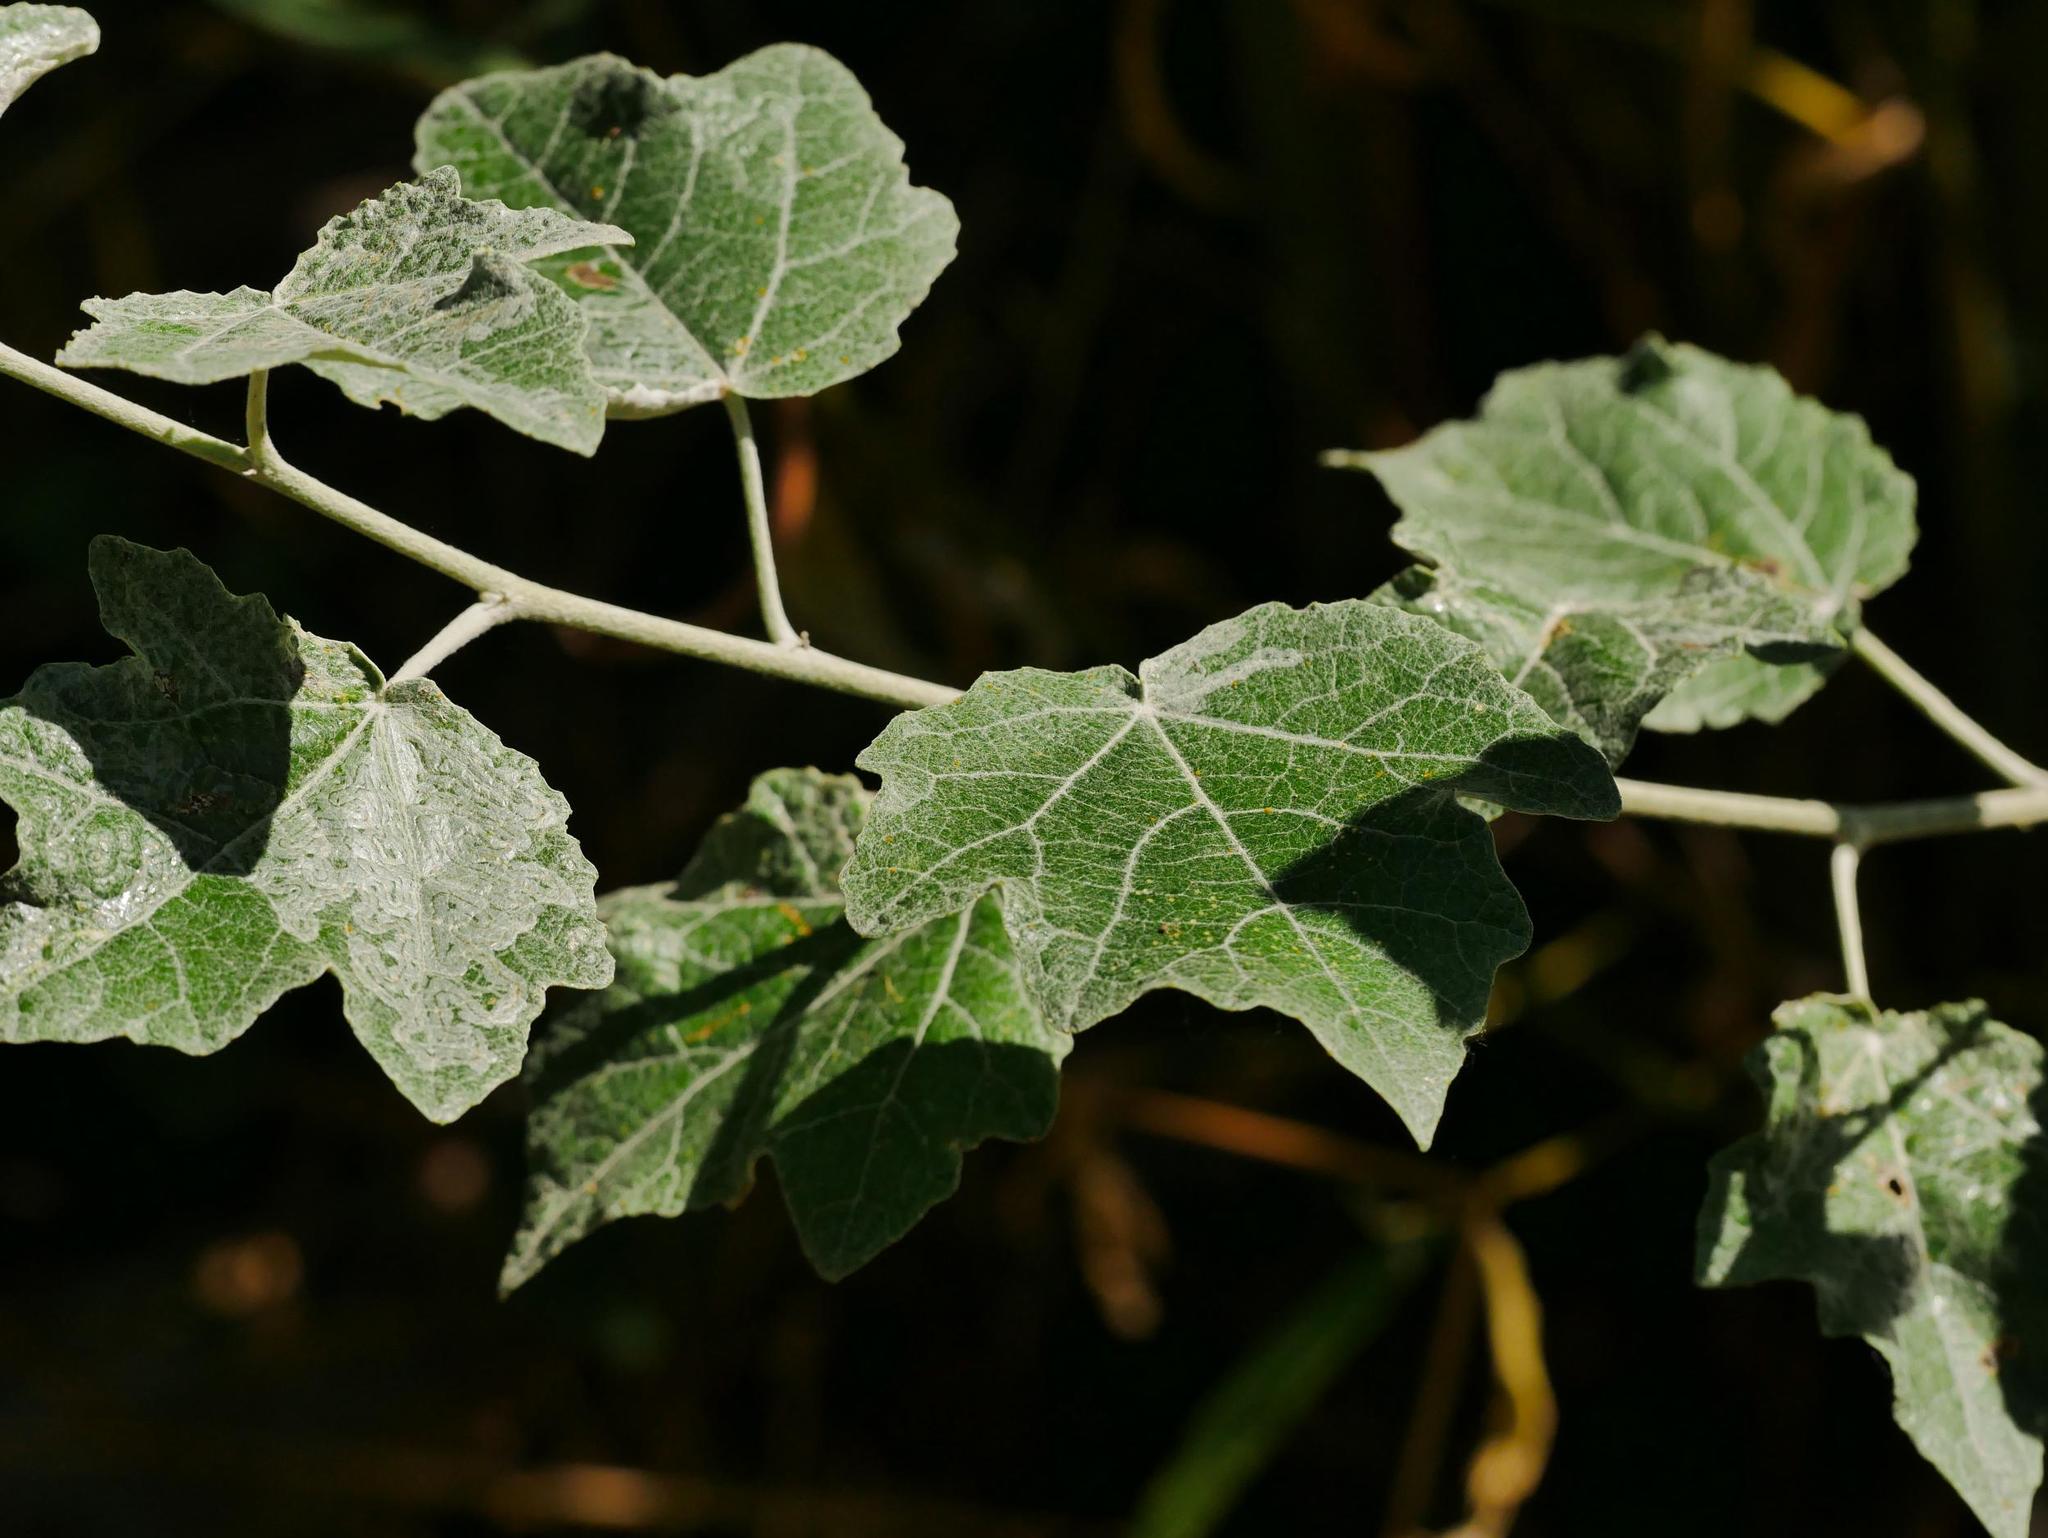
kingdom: Plantae
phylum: Tracheophyta
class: Magnoliopsida
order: Malpighiales
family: Salicaceae
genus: Populus
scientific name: Populus alba
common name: White poplar
